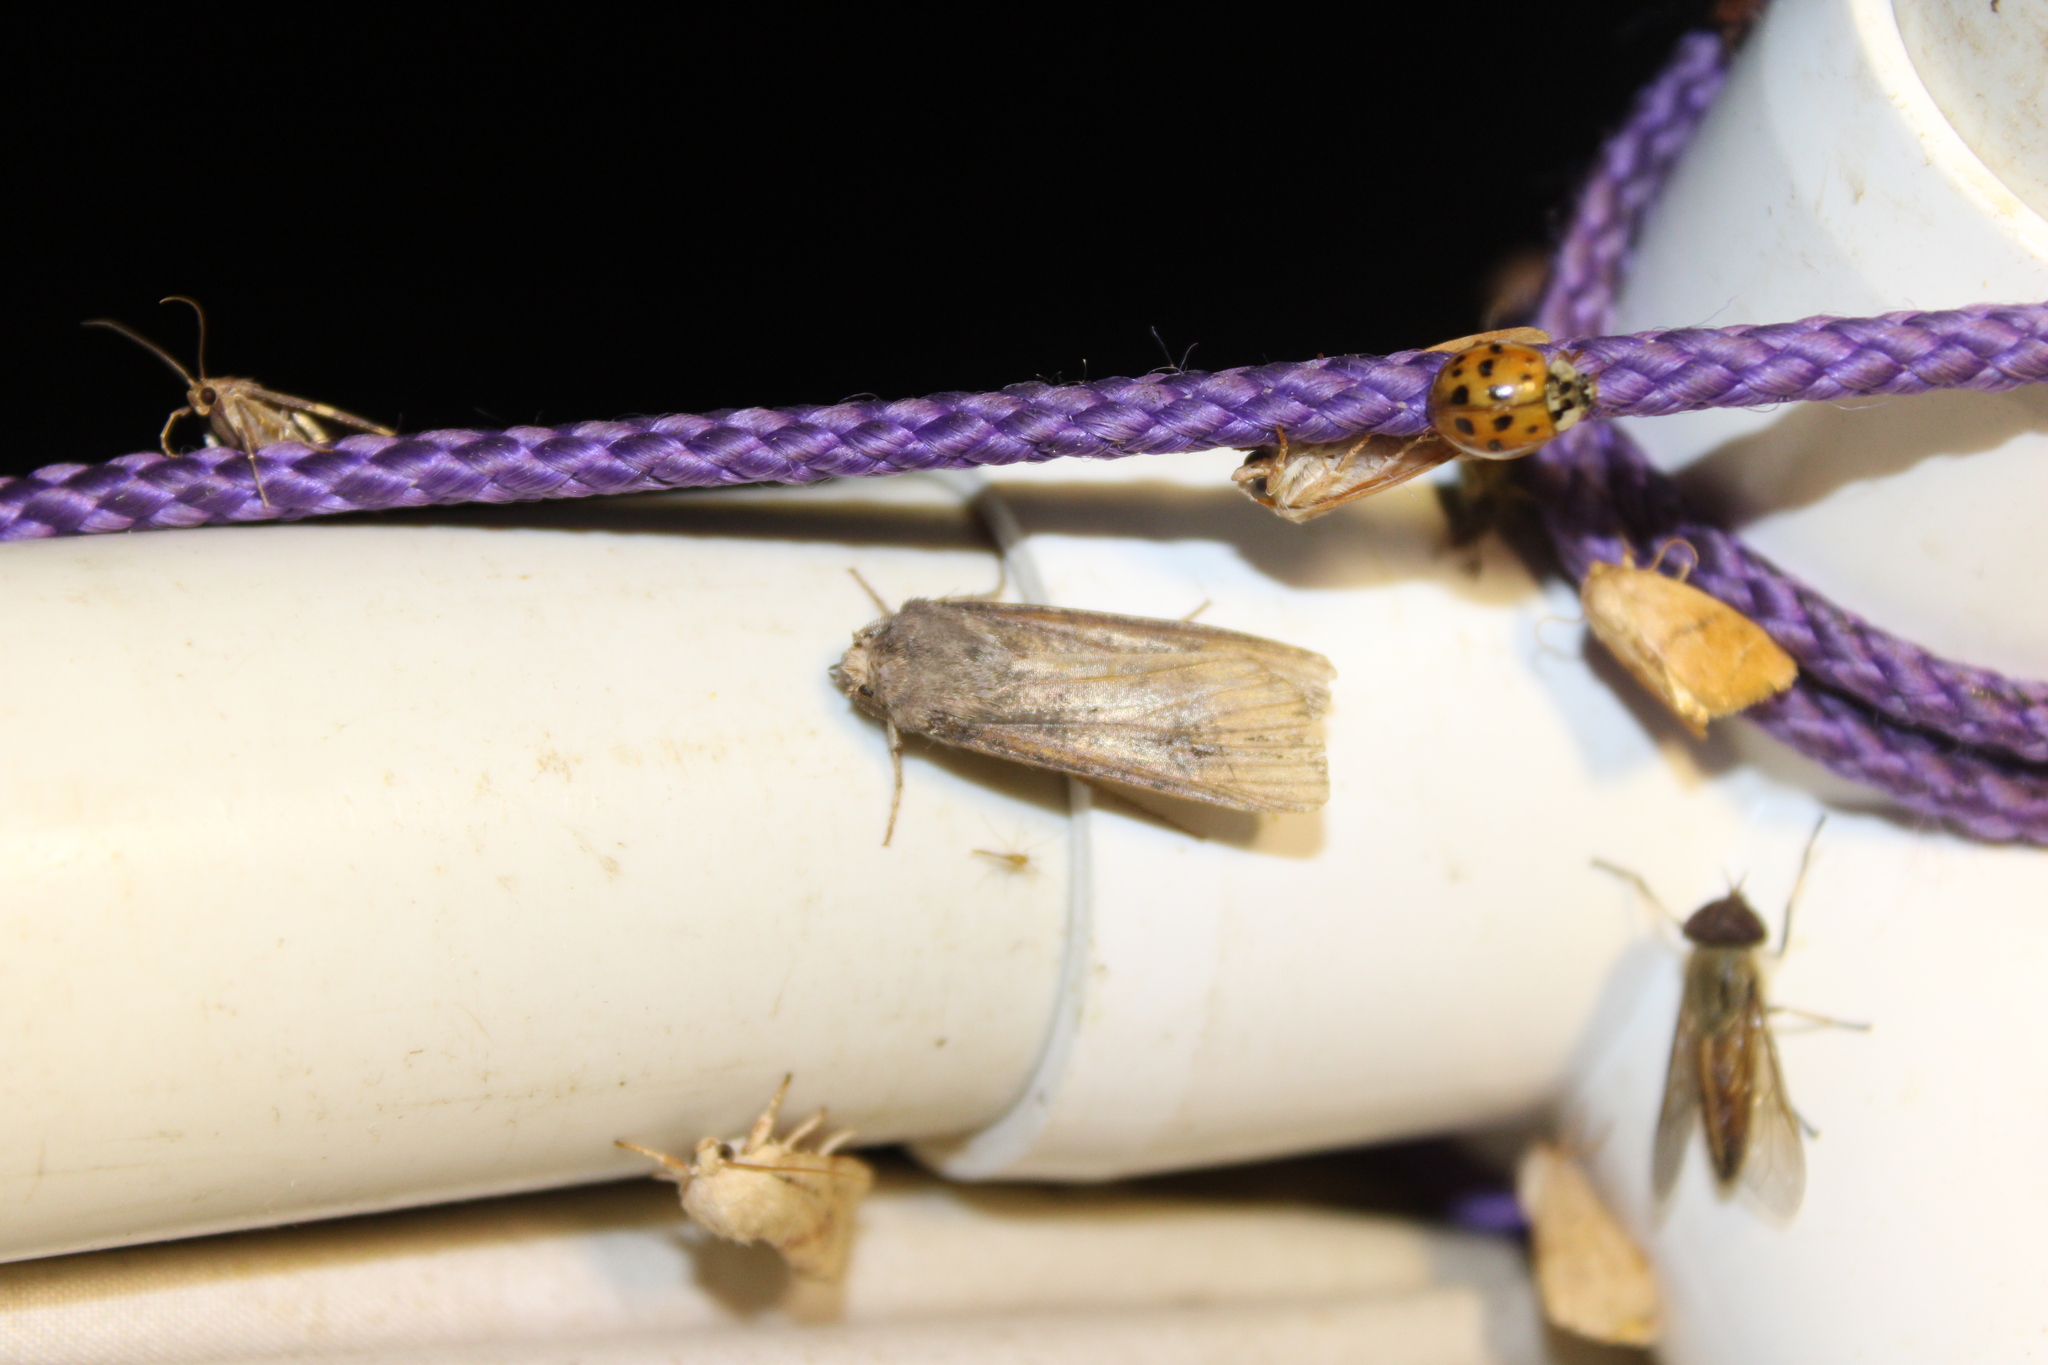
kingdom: Animalia
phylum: Arthropoda
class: Insecta
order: Lepidoptera
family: Noctuidae
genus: Agrotis
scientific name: Agrotis ipsilon
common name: Dark sword-grass
